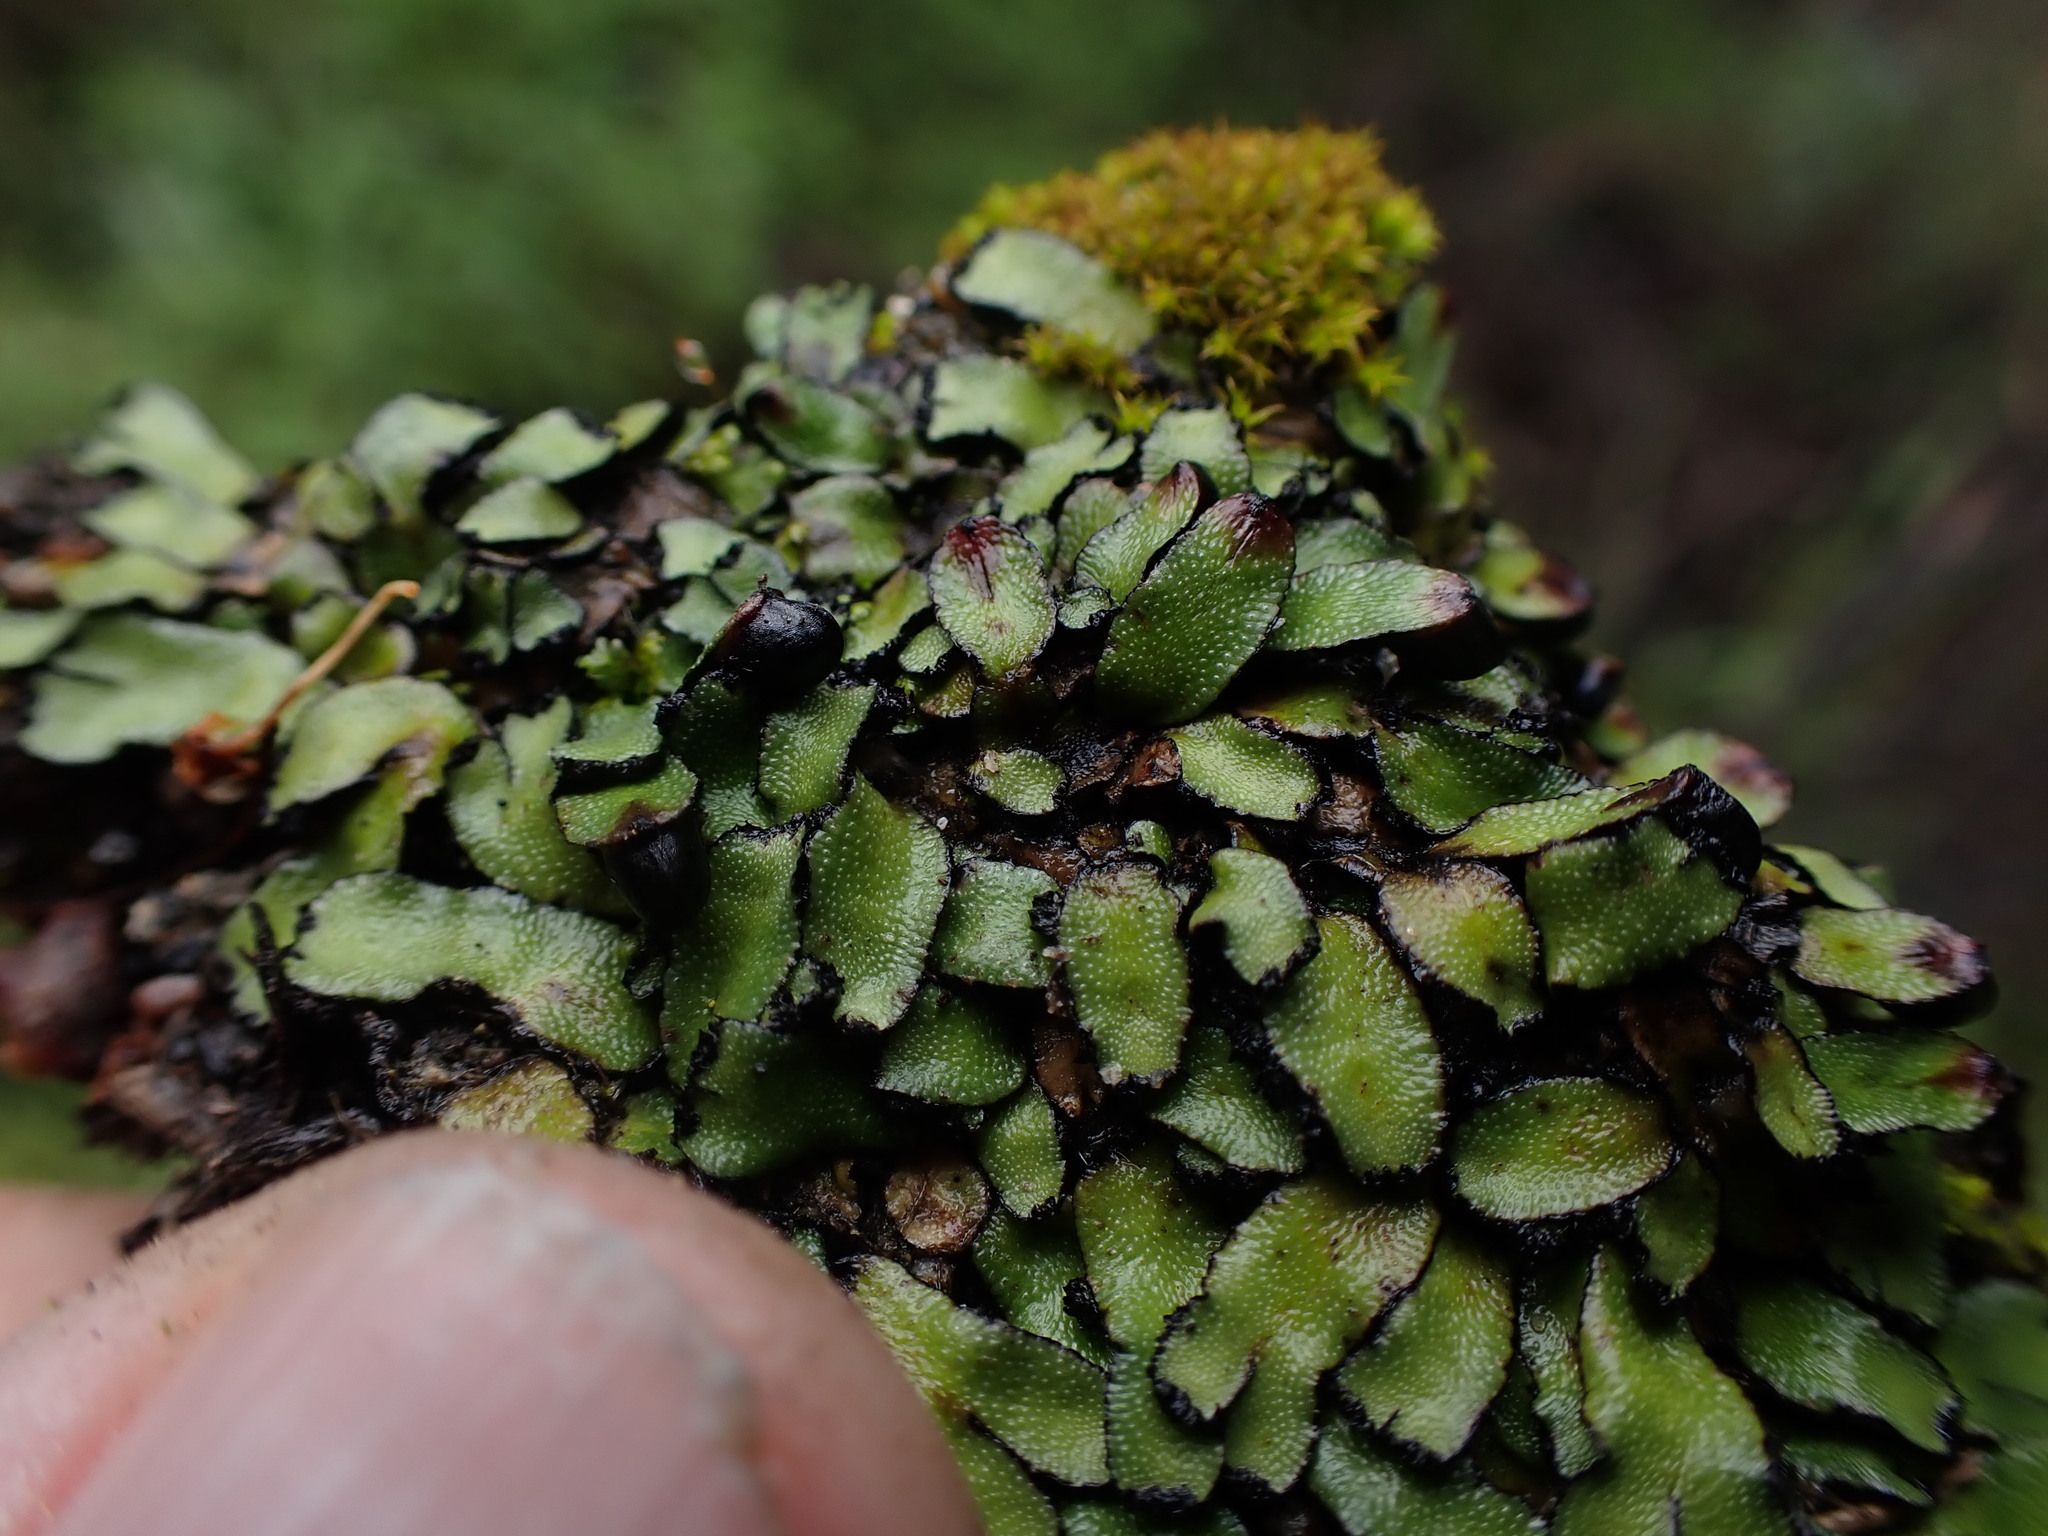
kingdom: Plantae
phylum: Marchantiophyta
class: Marchantiopsida
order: Marchantiales
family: Targioniaceae
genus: Targionia
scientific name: Targionia hypophylla
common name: Orobus-seed liverwort
